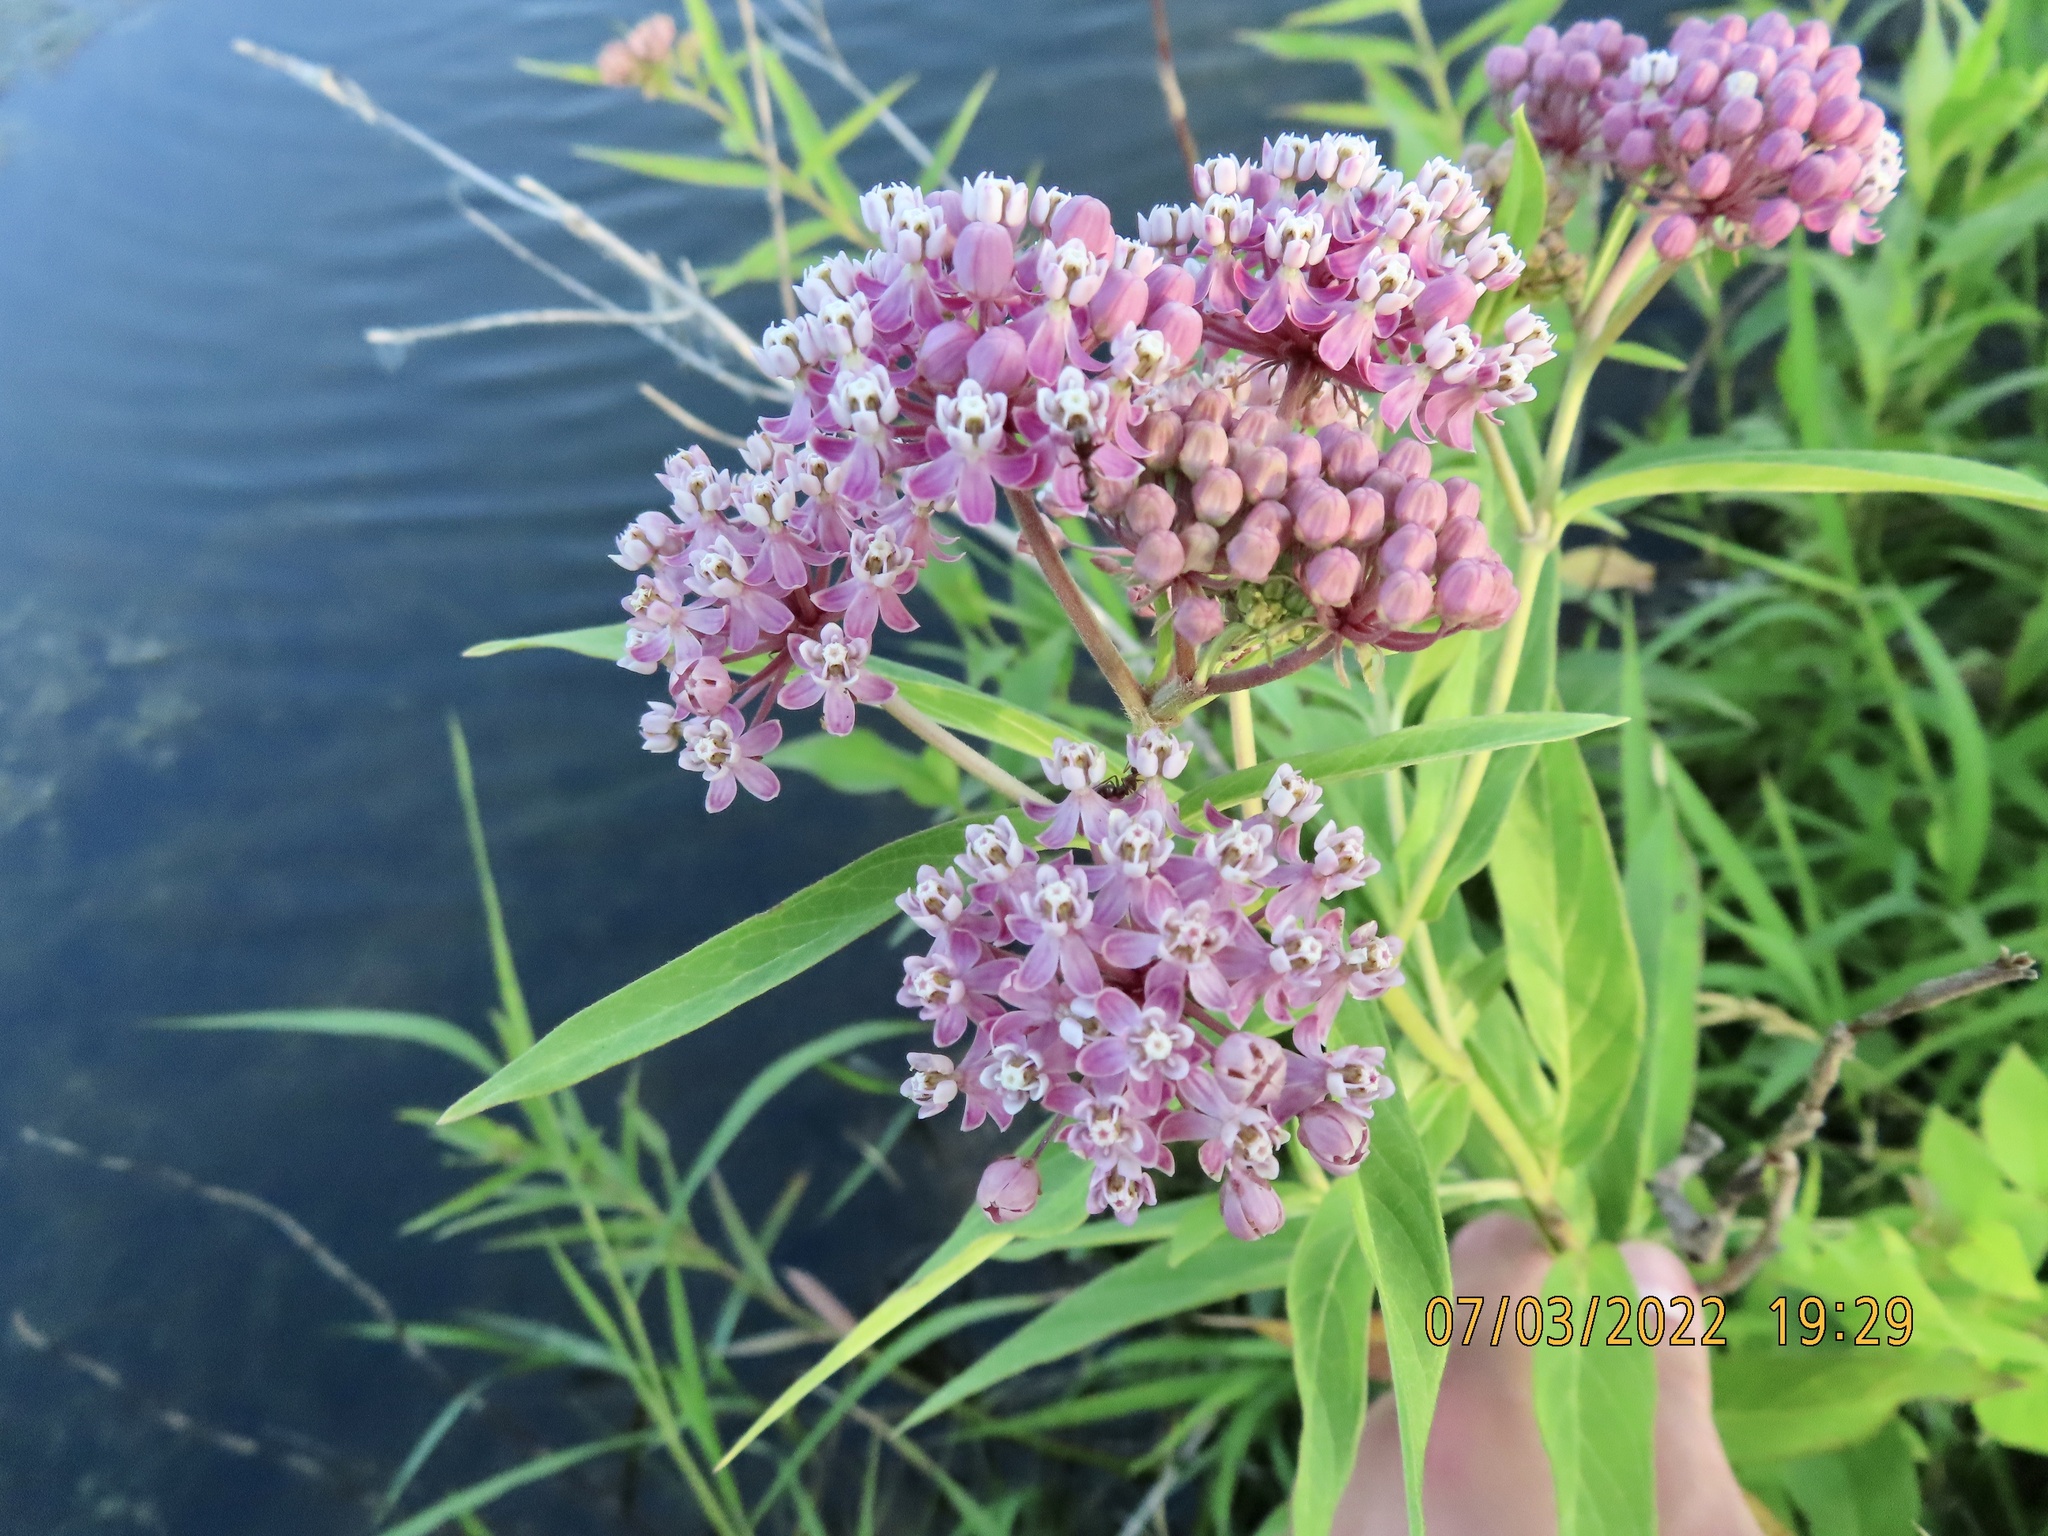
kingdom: Plantae
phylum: Tracheophyta
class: Magnoliopsida
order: Gentianales
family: Apocynaceae
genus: Asclepias
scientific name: Asclepias incarnata
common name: Swamp milkweed
